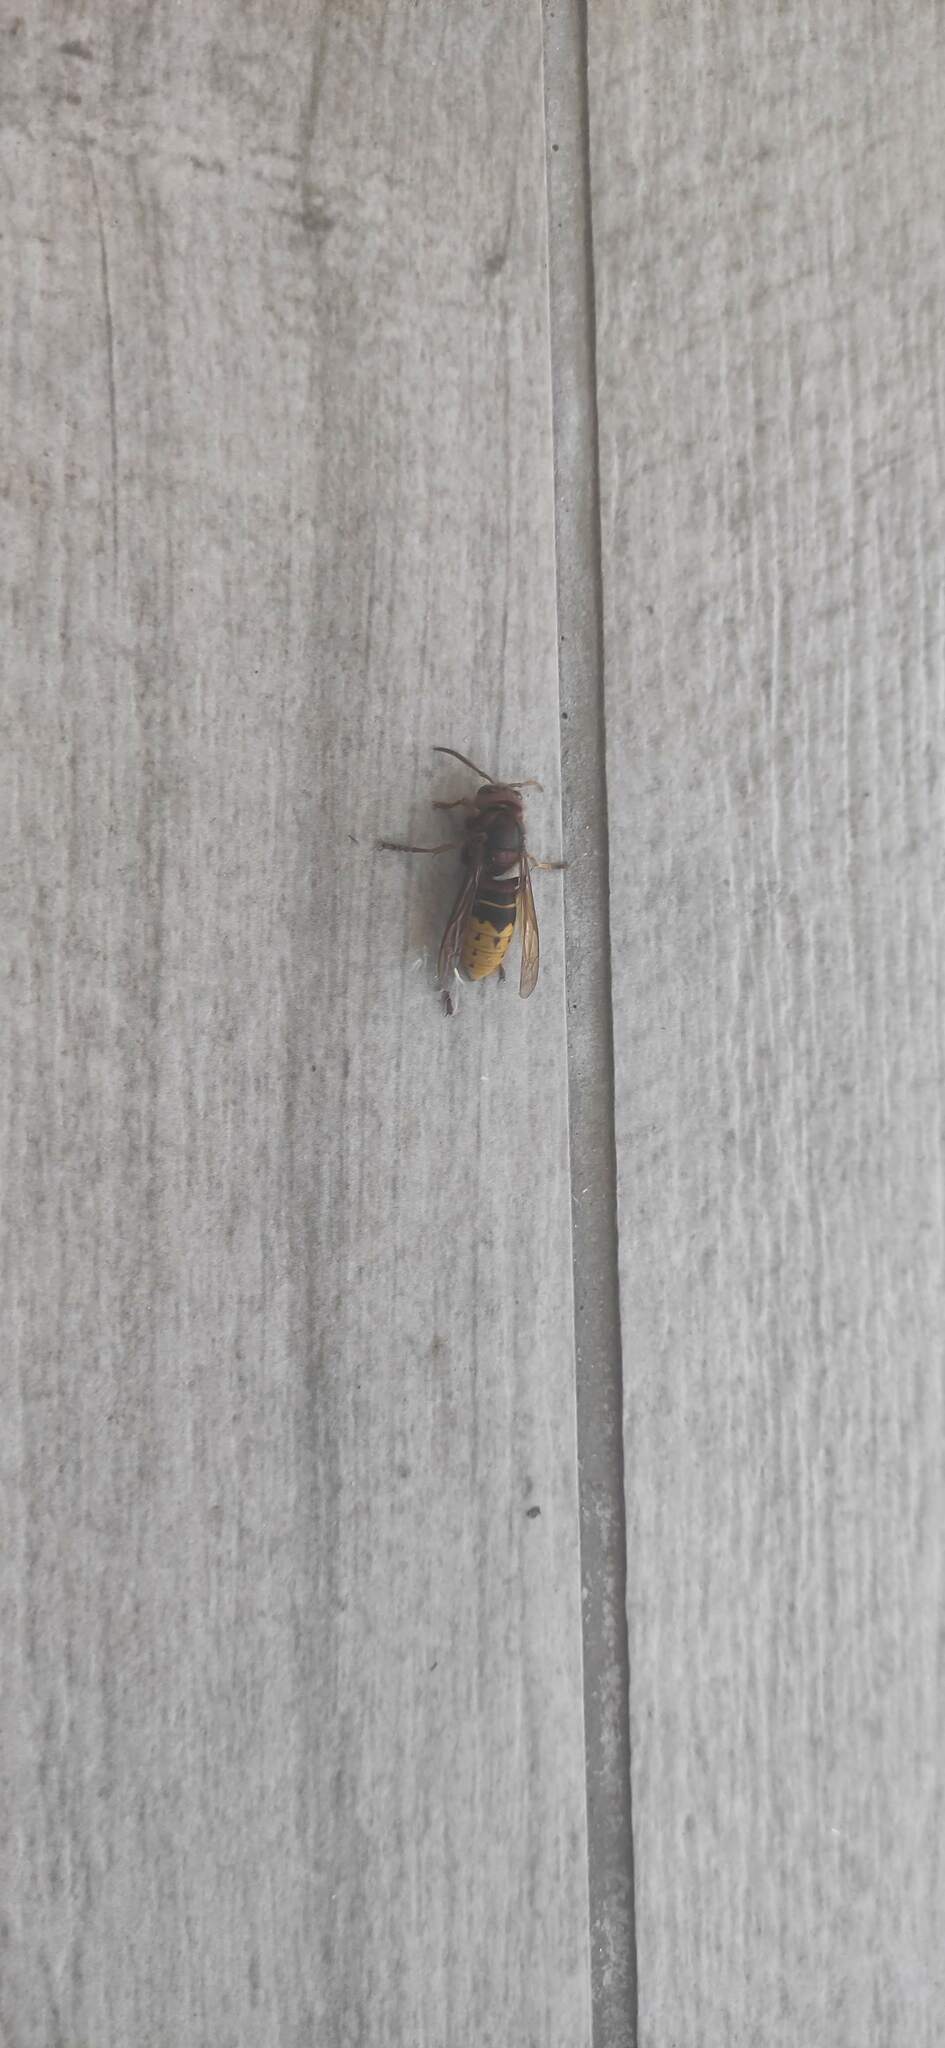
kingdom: Animalia
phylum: Arthropoda
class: Insecta
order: Hymenoptera
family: Vespidae
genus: Vespa
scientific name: Vespa crabro
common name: Hornet
